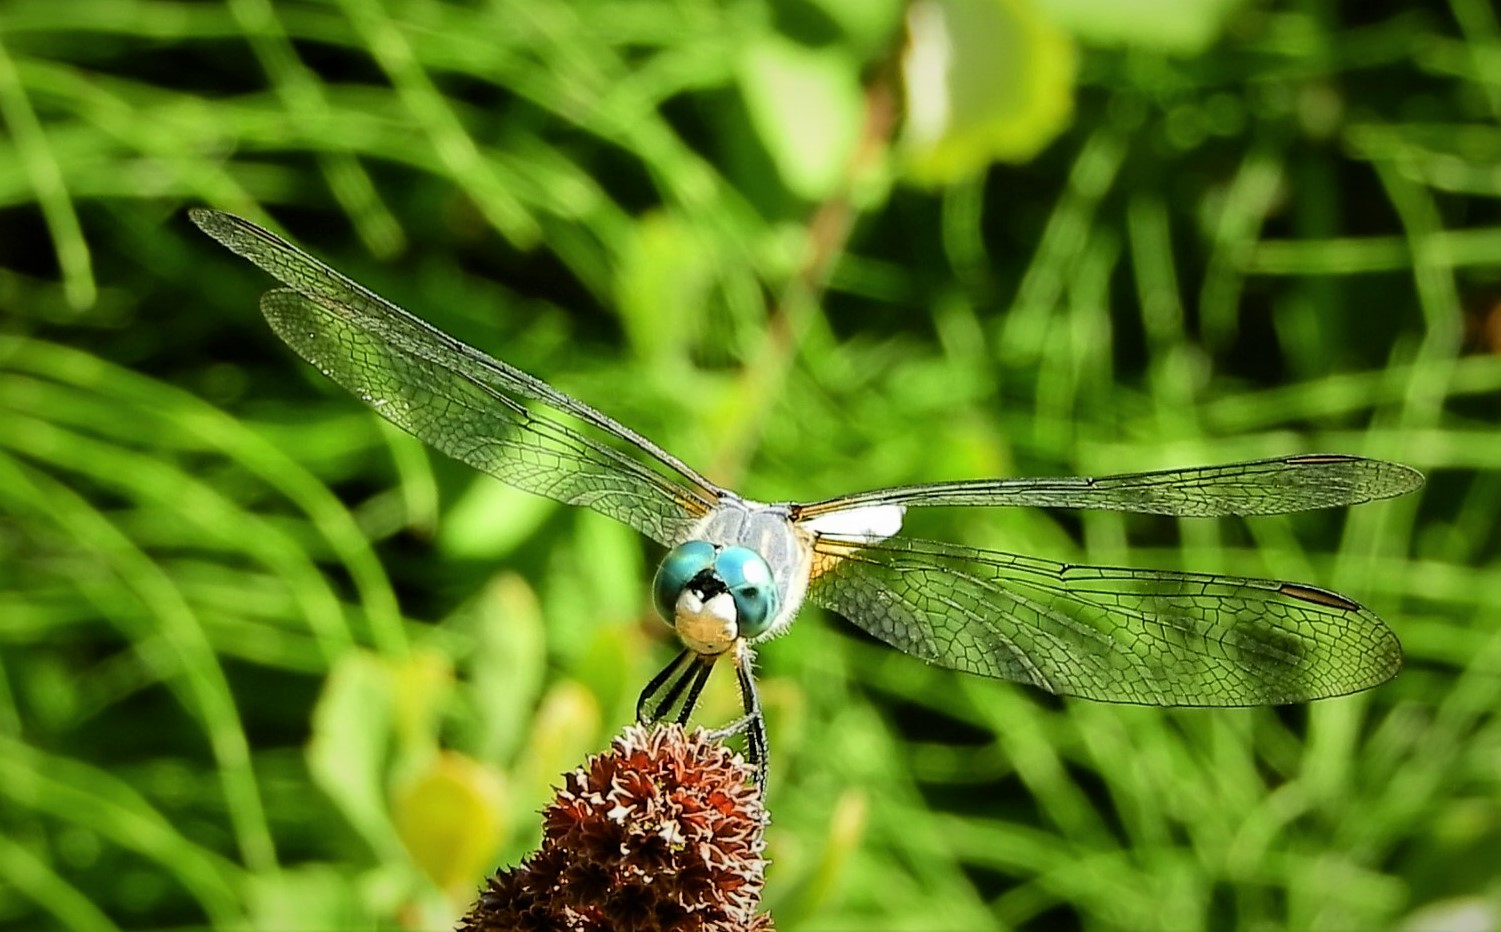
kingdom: Animalia
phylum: Arthropoda
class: Insecta
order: Odonata
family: Libellulidae
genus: Pachydiplax
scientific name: Pachydiplax longipennis
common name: Blue dasher
